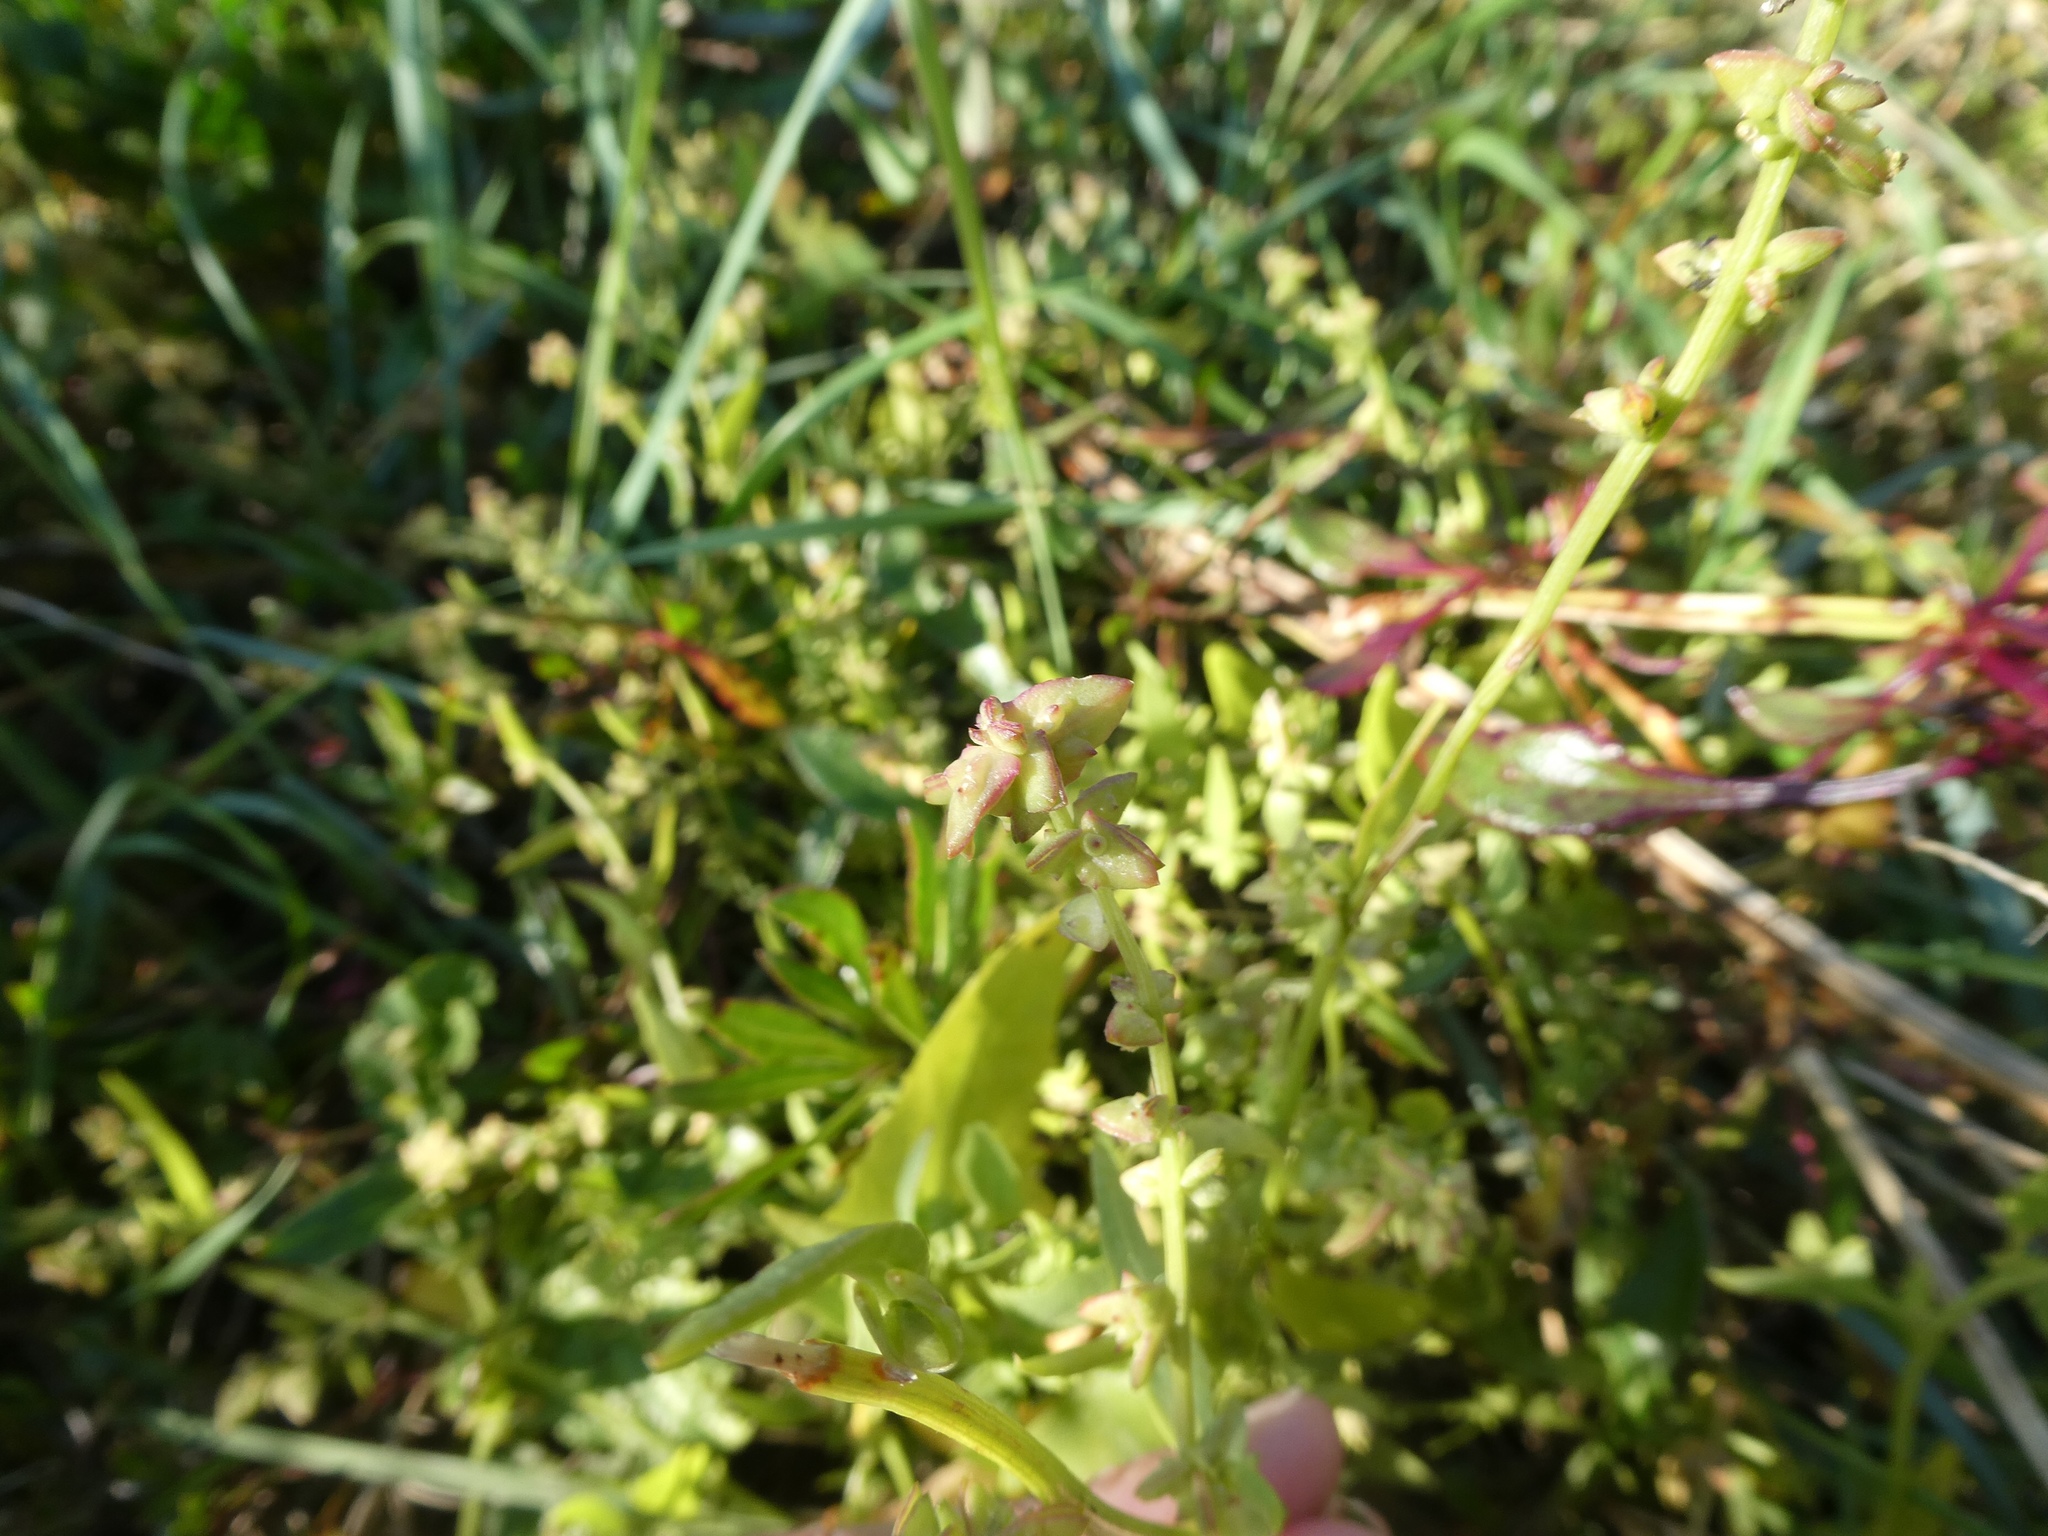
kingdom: Plantae
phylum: Tracheophyta
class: Magnoliopsida
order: Caryophyllales
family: Amaranthaceae
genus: Atriplex
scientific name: Atriplex prostrata
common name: Spear-leaved orache
